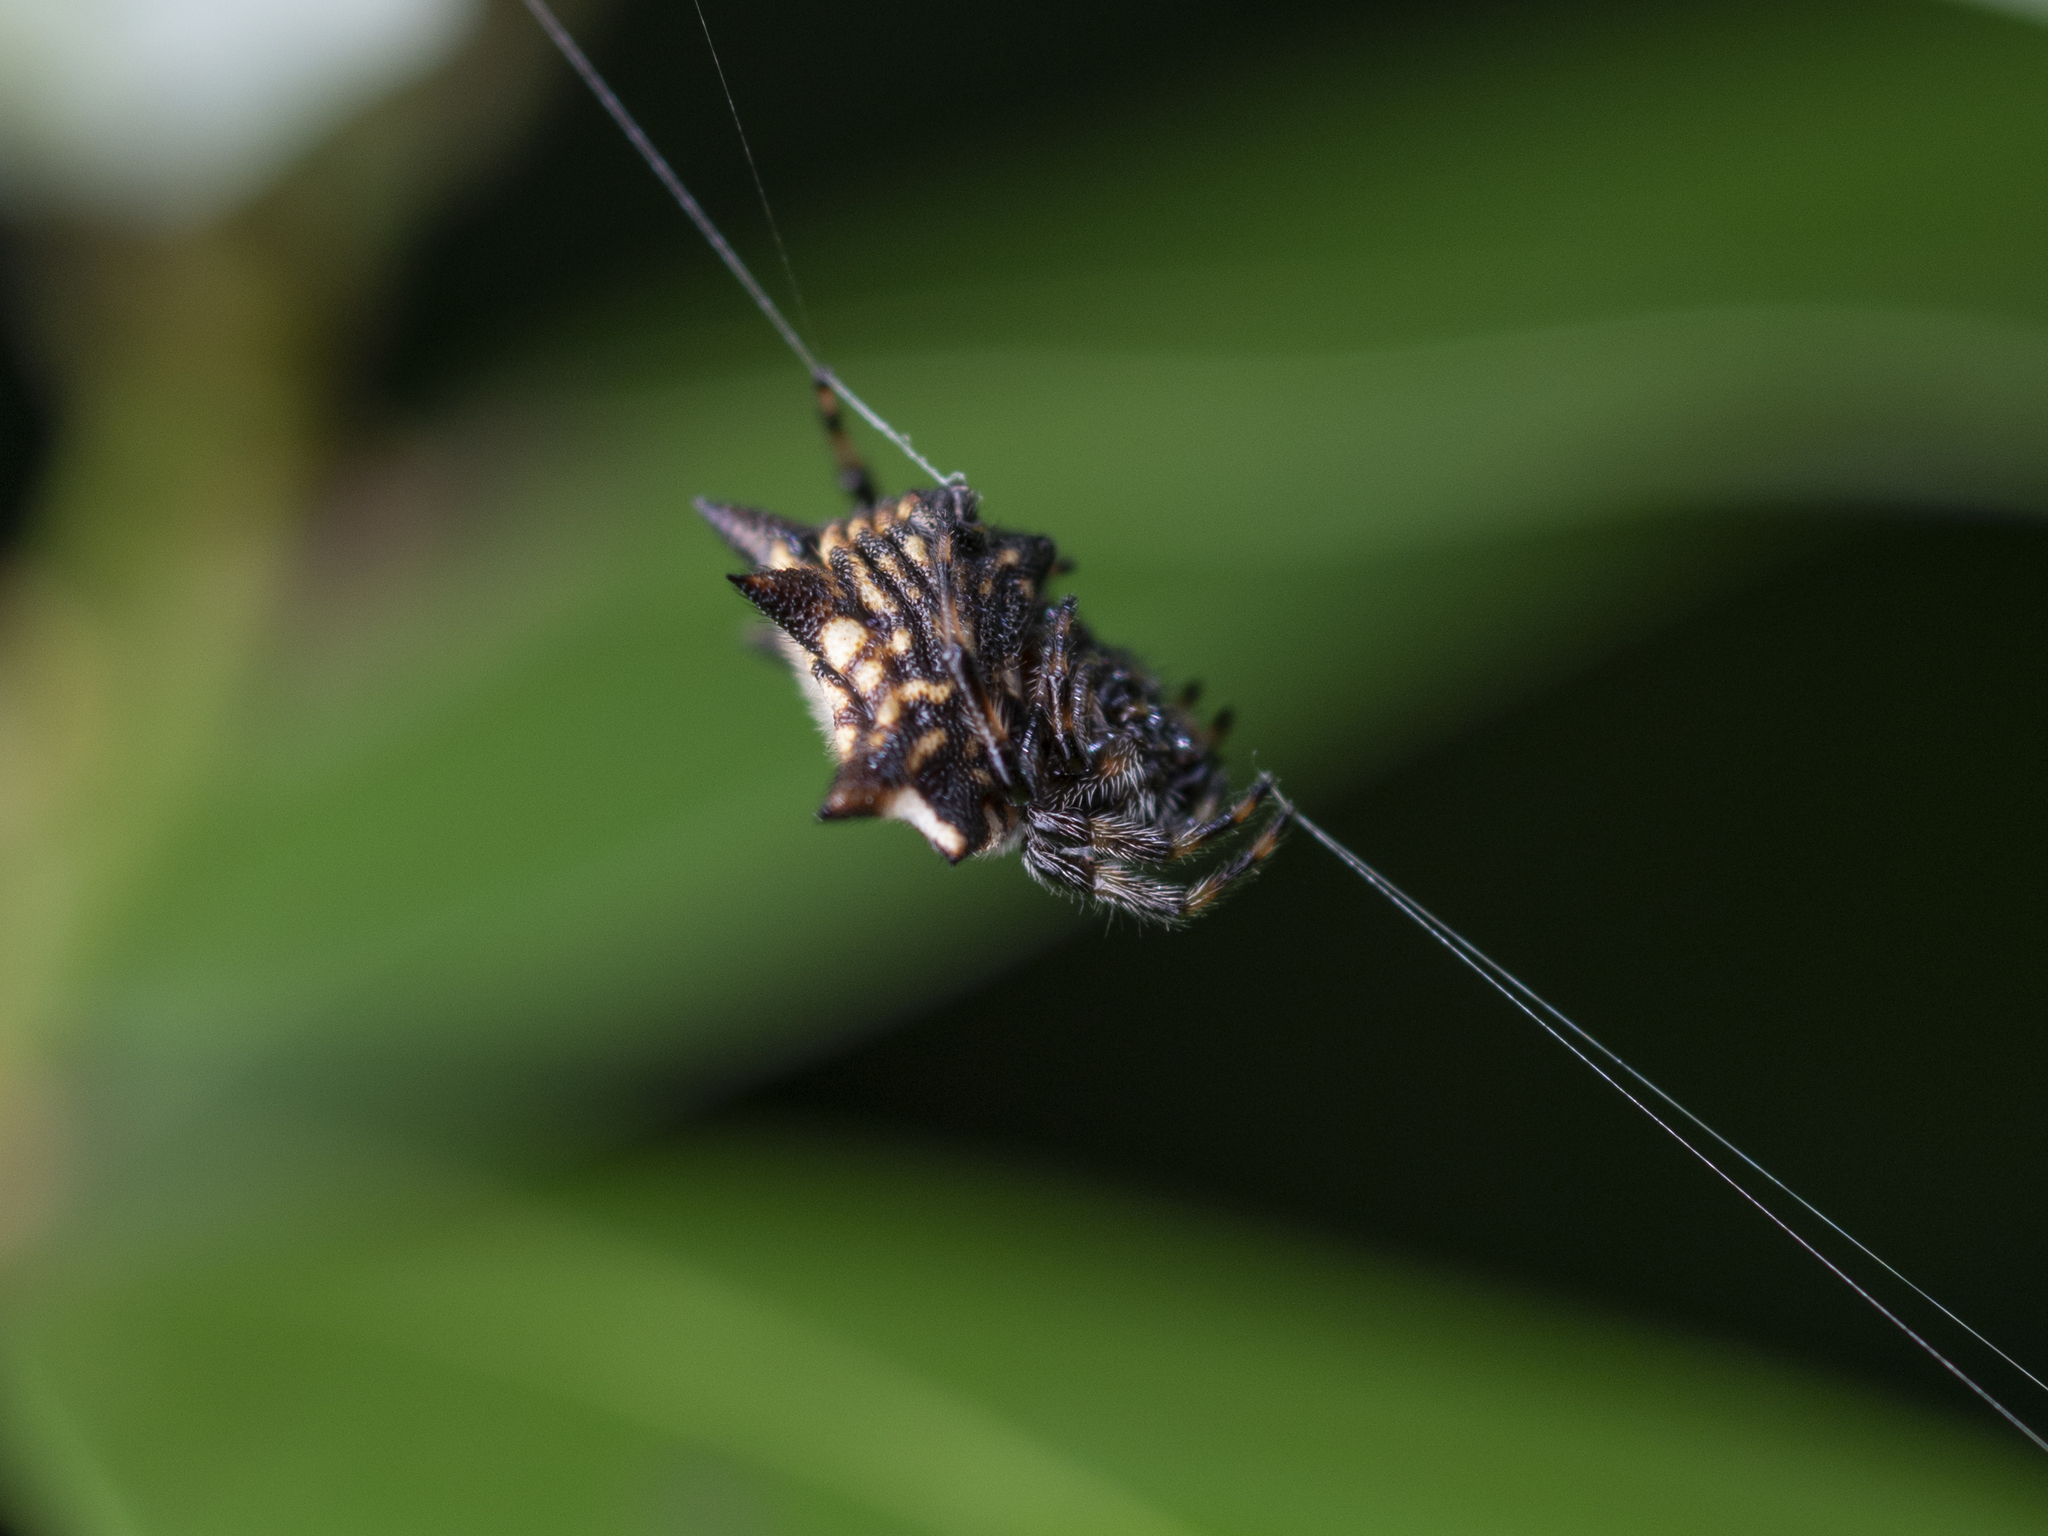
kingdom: Animalia
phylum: Arthropoda
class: Arachnida
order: Araneae
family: Araneidae
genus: Gasteracantha
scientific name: Gasteracantha kuhli
